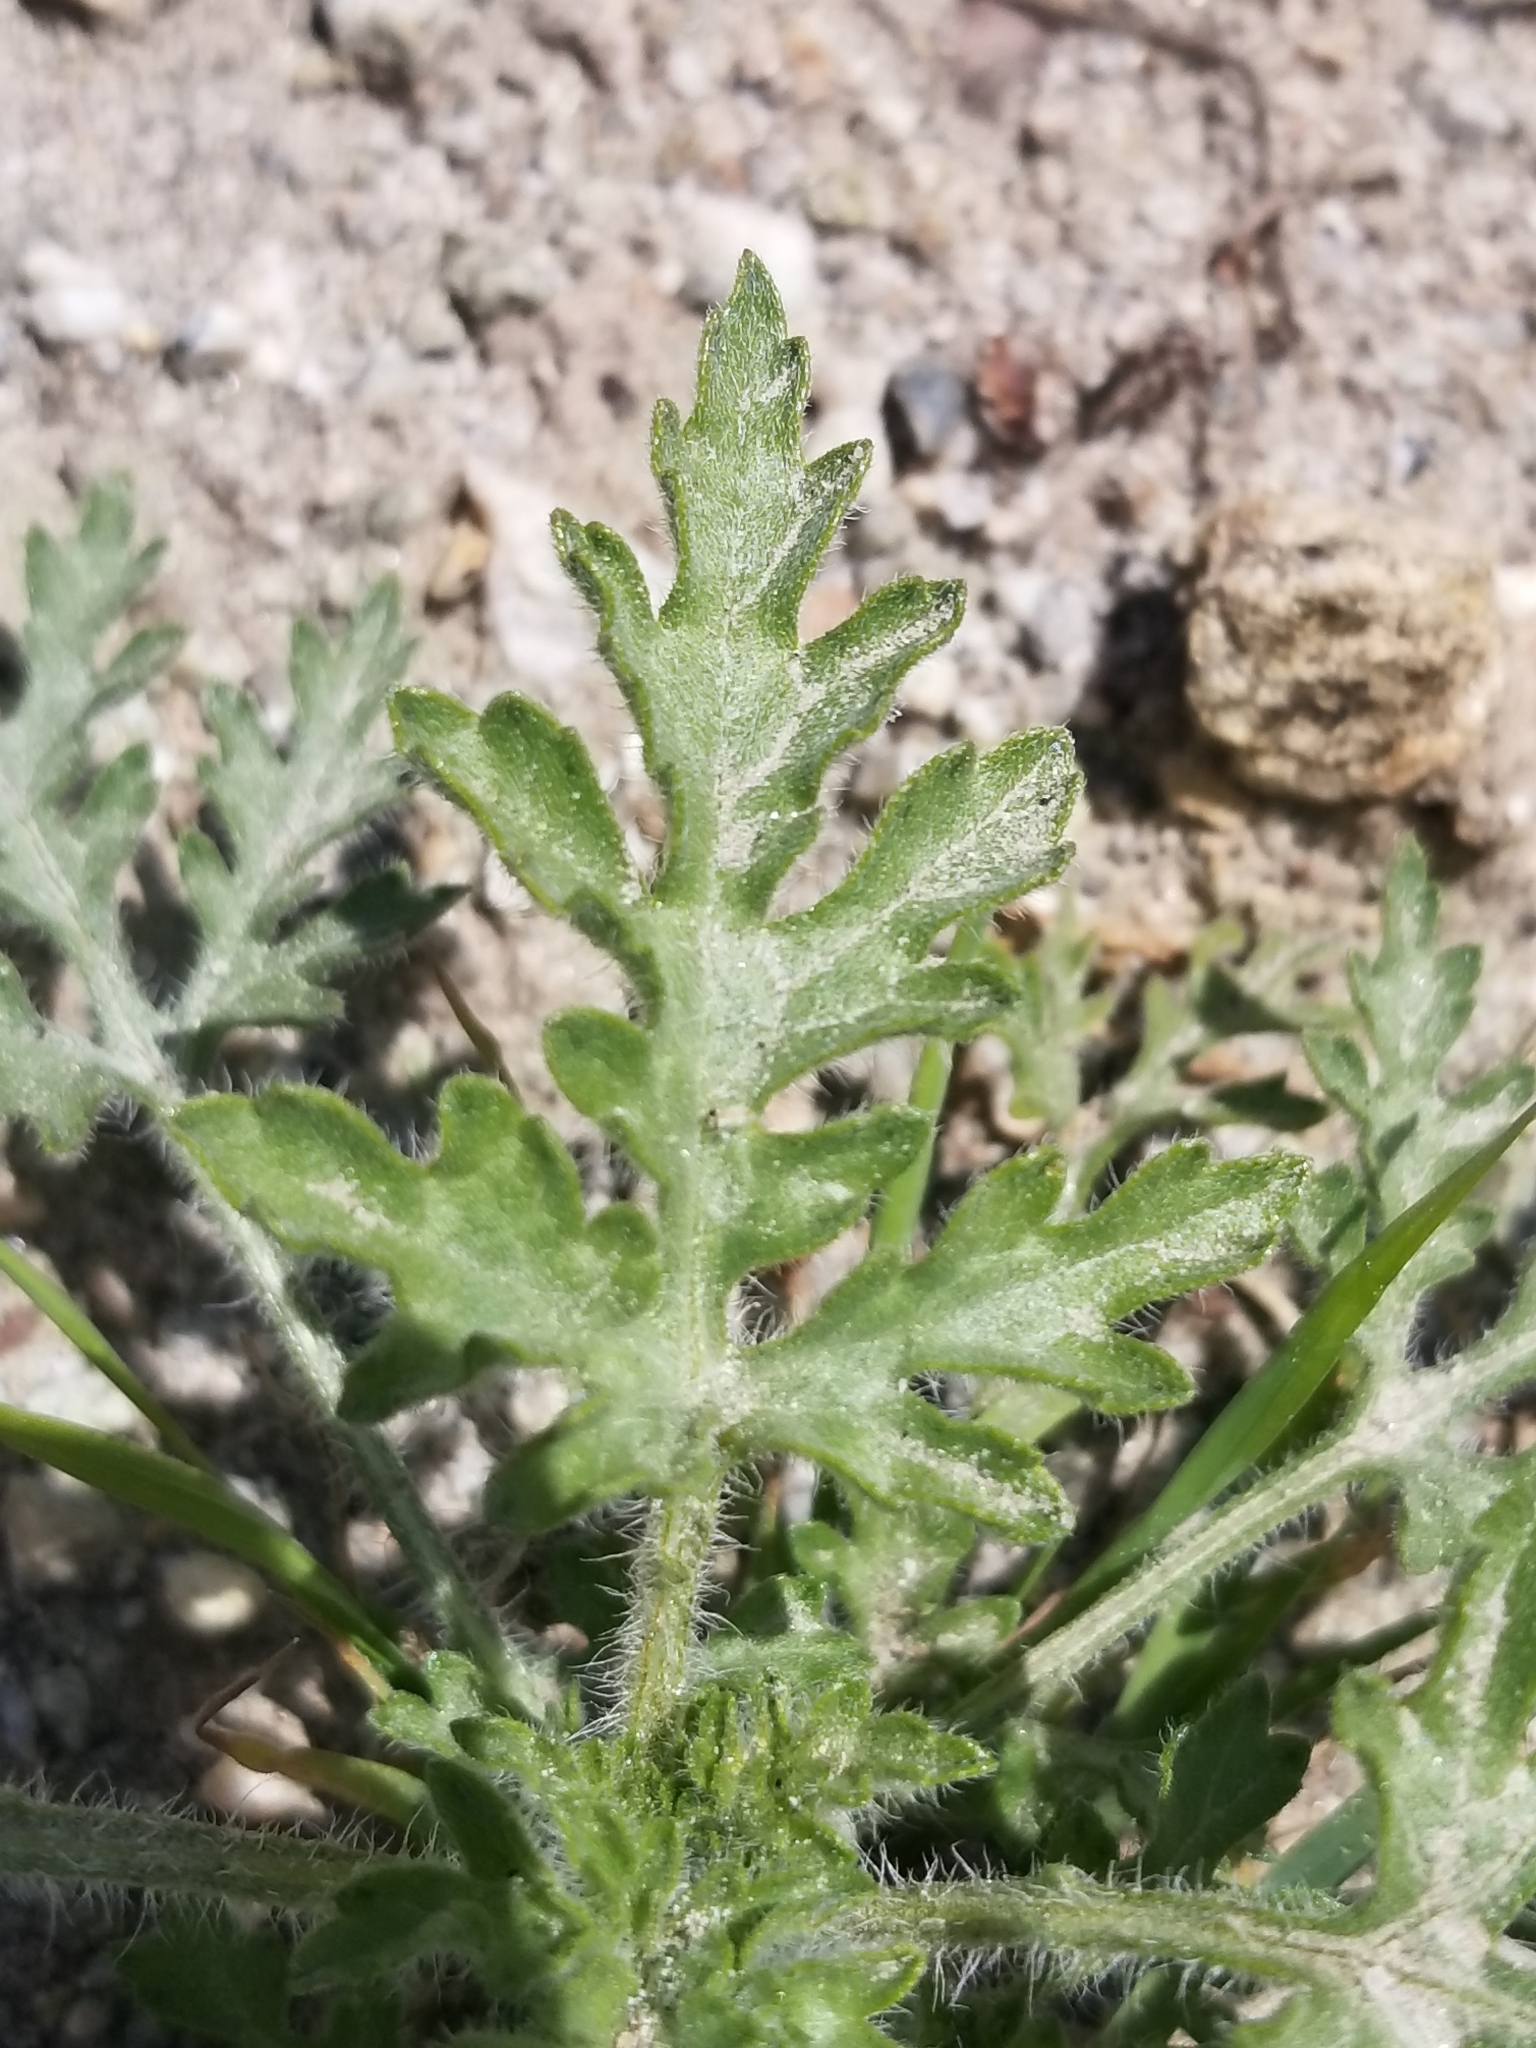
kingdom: Plantae
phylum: Tracheophyta
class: Magnoliopsida
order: Asterales
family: Asteraceae
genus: Ambrosia
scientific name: Ambrosia acanthicarpa
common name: Hooker's bur ragweed
